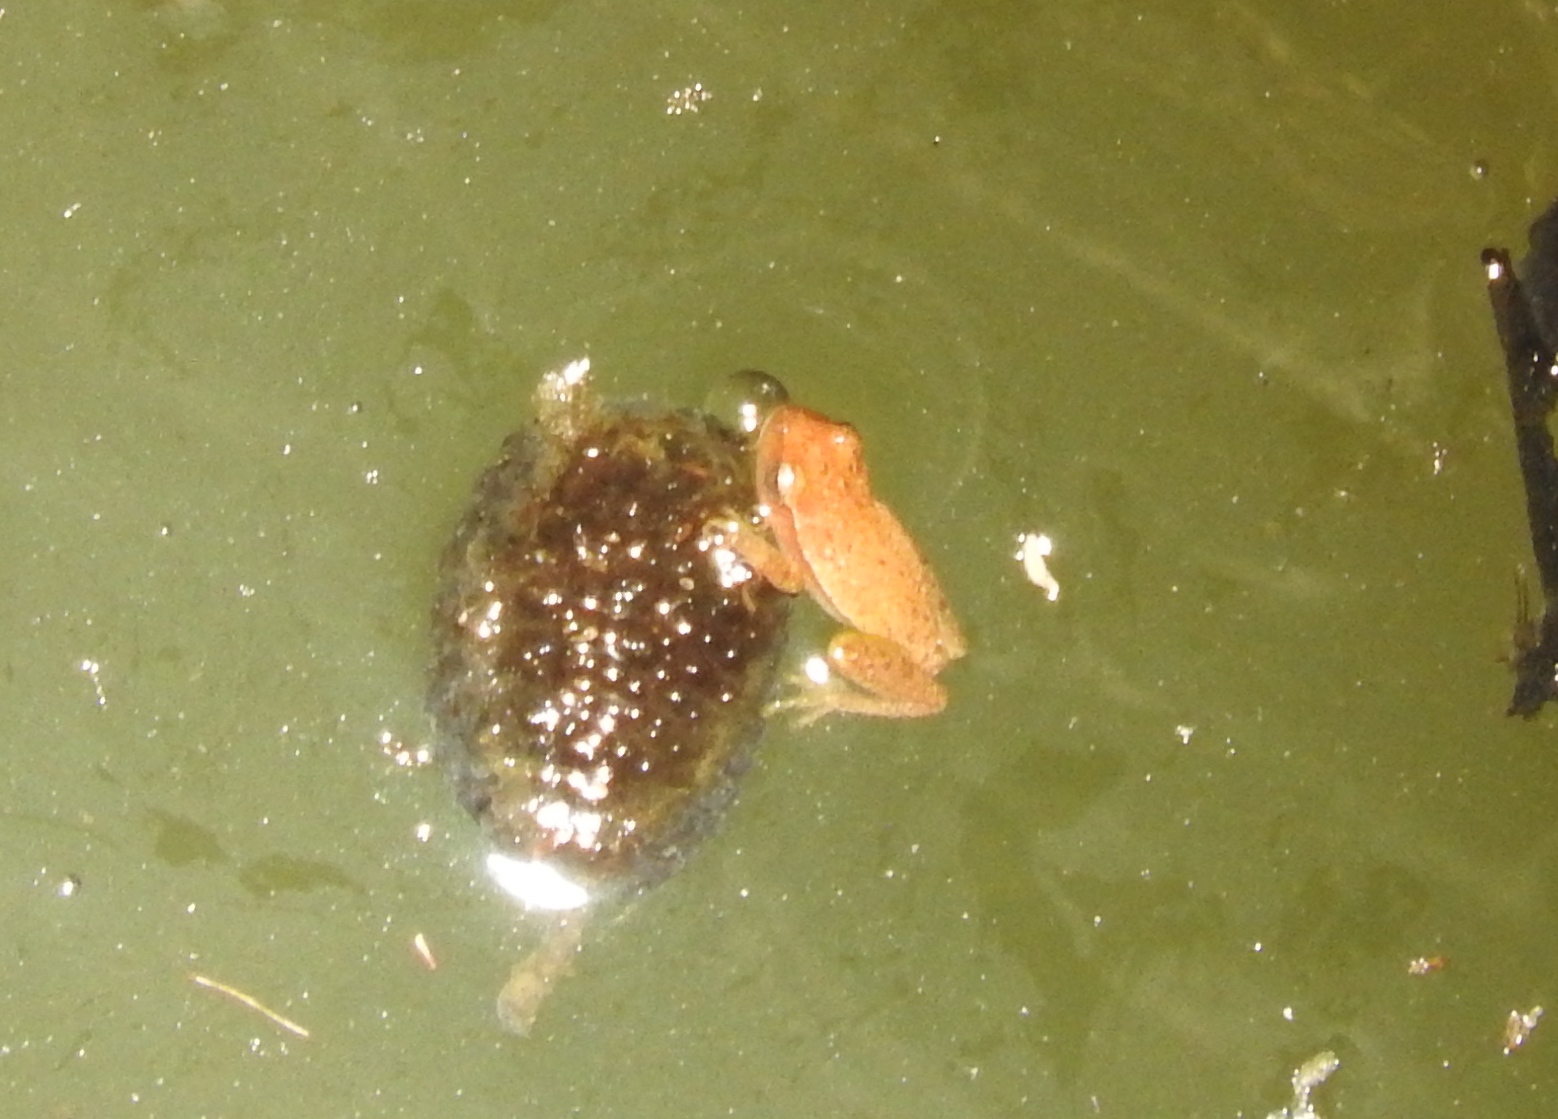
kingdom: Animalia
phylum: Chordata
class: Amphibia
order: Anura
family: Hylidae
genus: Tlalocohyla
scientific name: Tlalocohyla smithii
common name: Dwarf mexican treefrog
